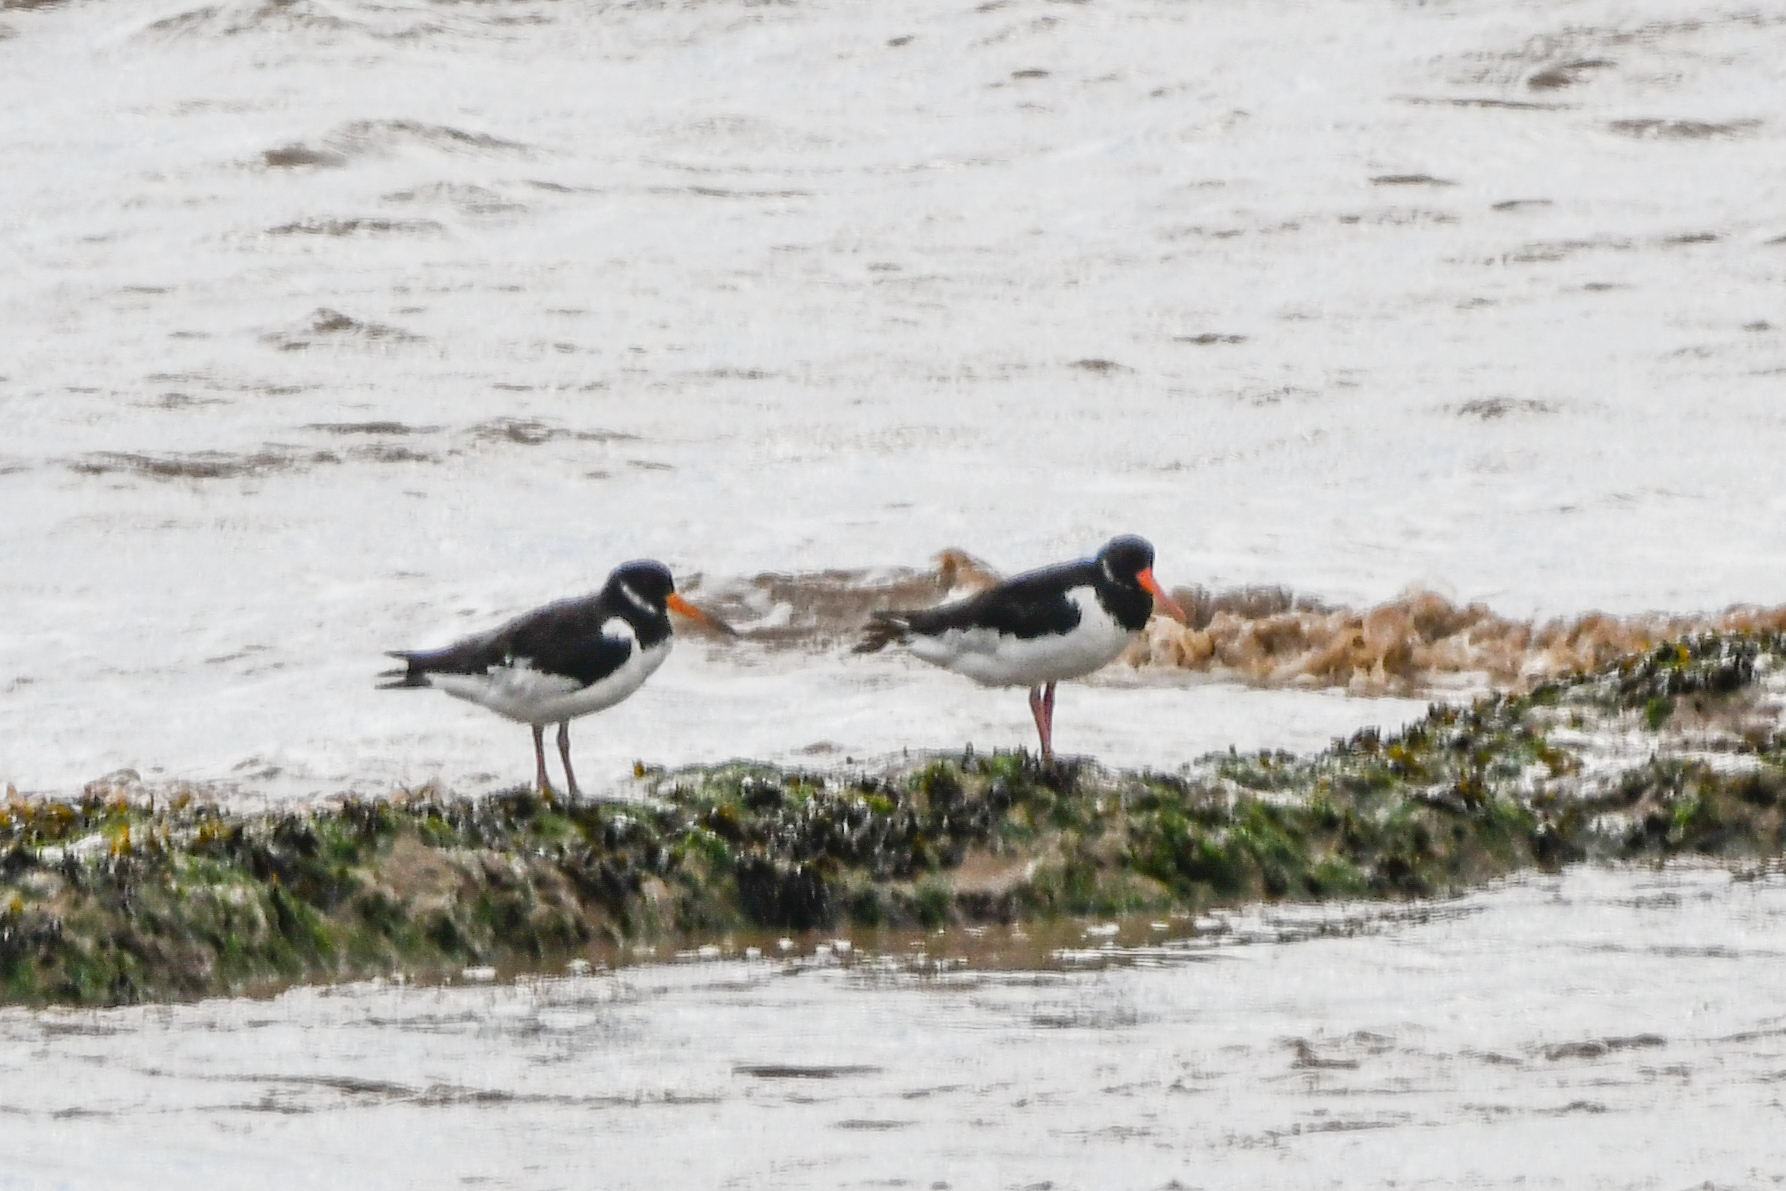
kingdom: Animalia
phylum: Chordata
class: Aves
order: Charadriiformes
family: Haematopodidae
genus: Haematopus
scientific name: Haematopus ostralegus
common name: Eurasian oystercatcher
